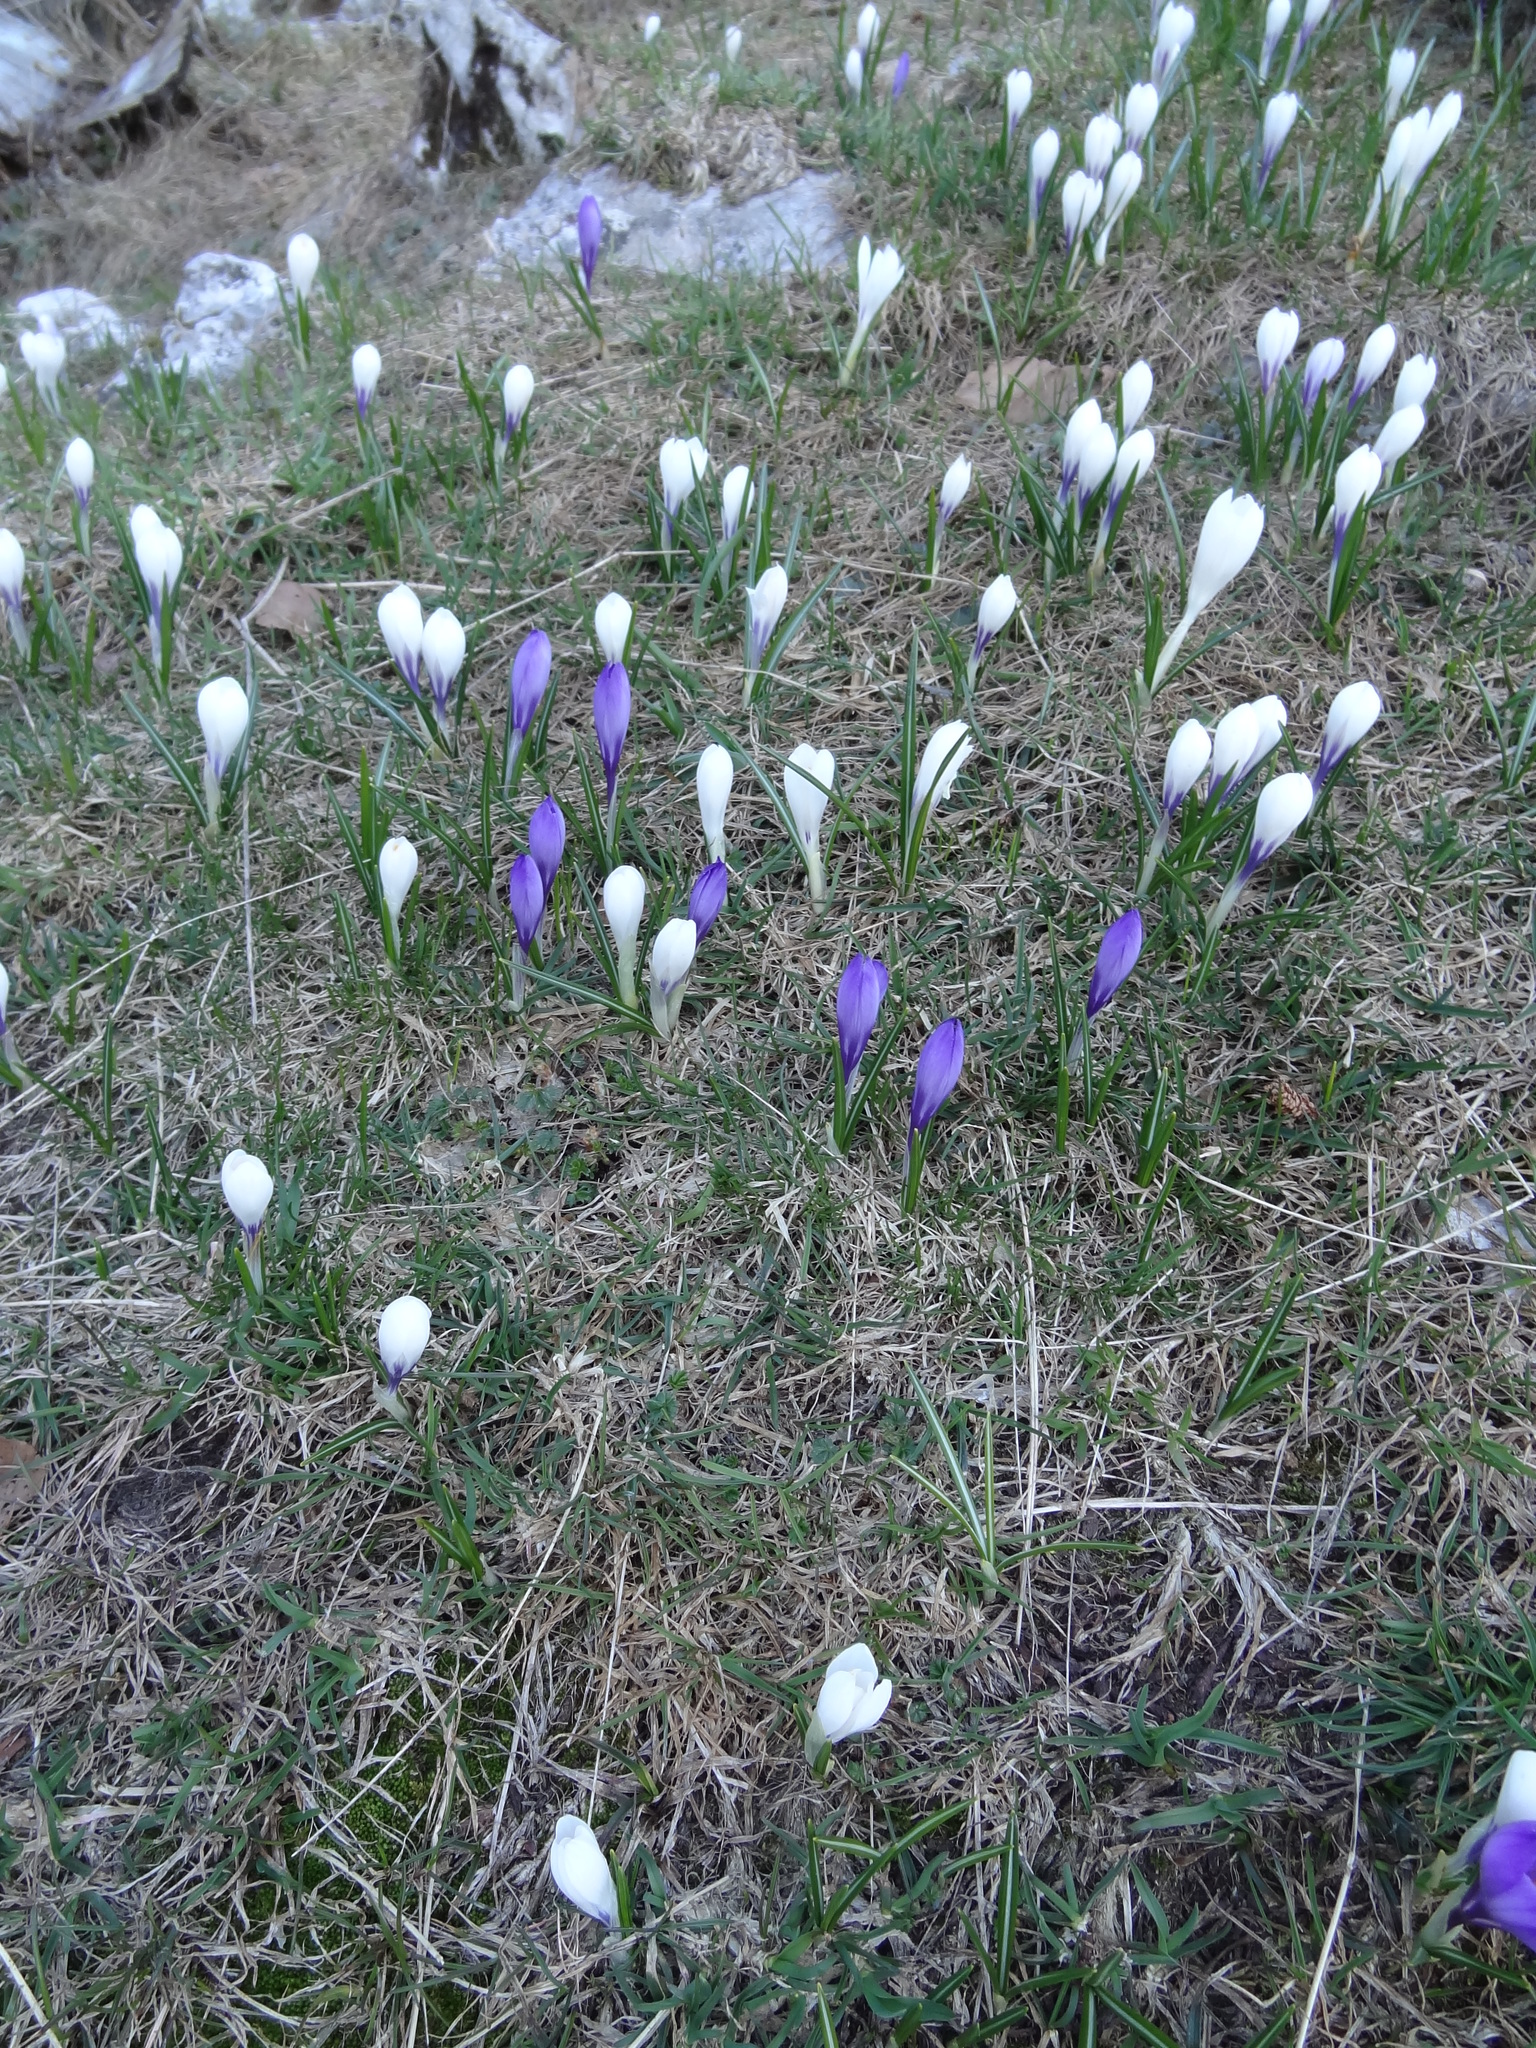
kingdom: Plantae
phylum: Tracheophyta
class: Liliopsida
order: Asparagales
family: Iridaceae
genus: Crocus
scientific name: Crocus vernus
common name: Spring crocus
